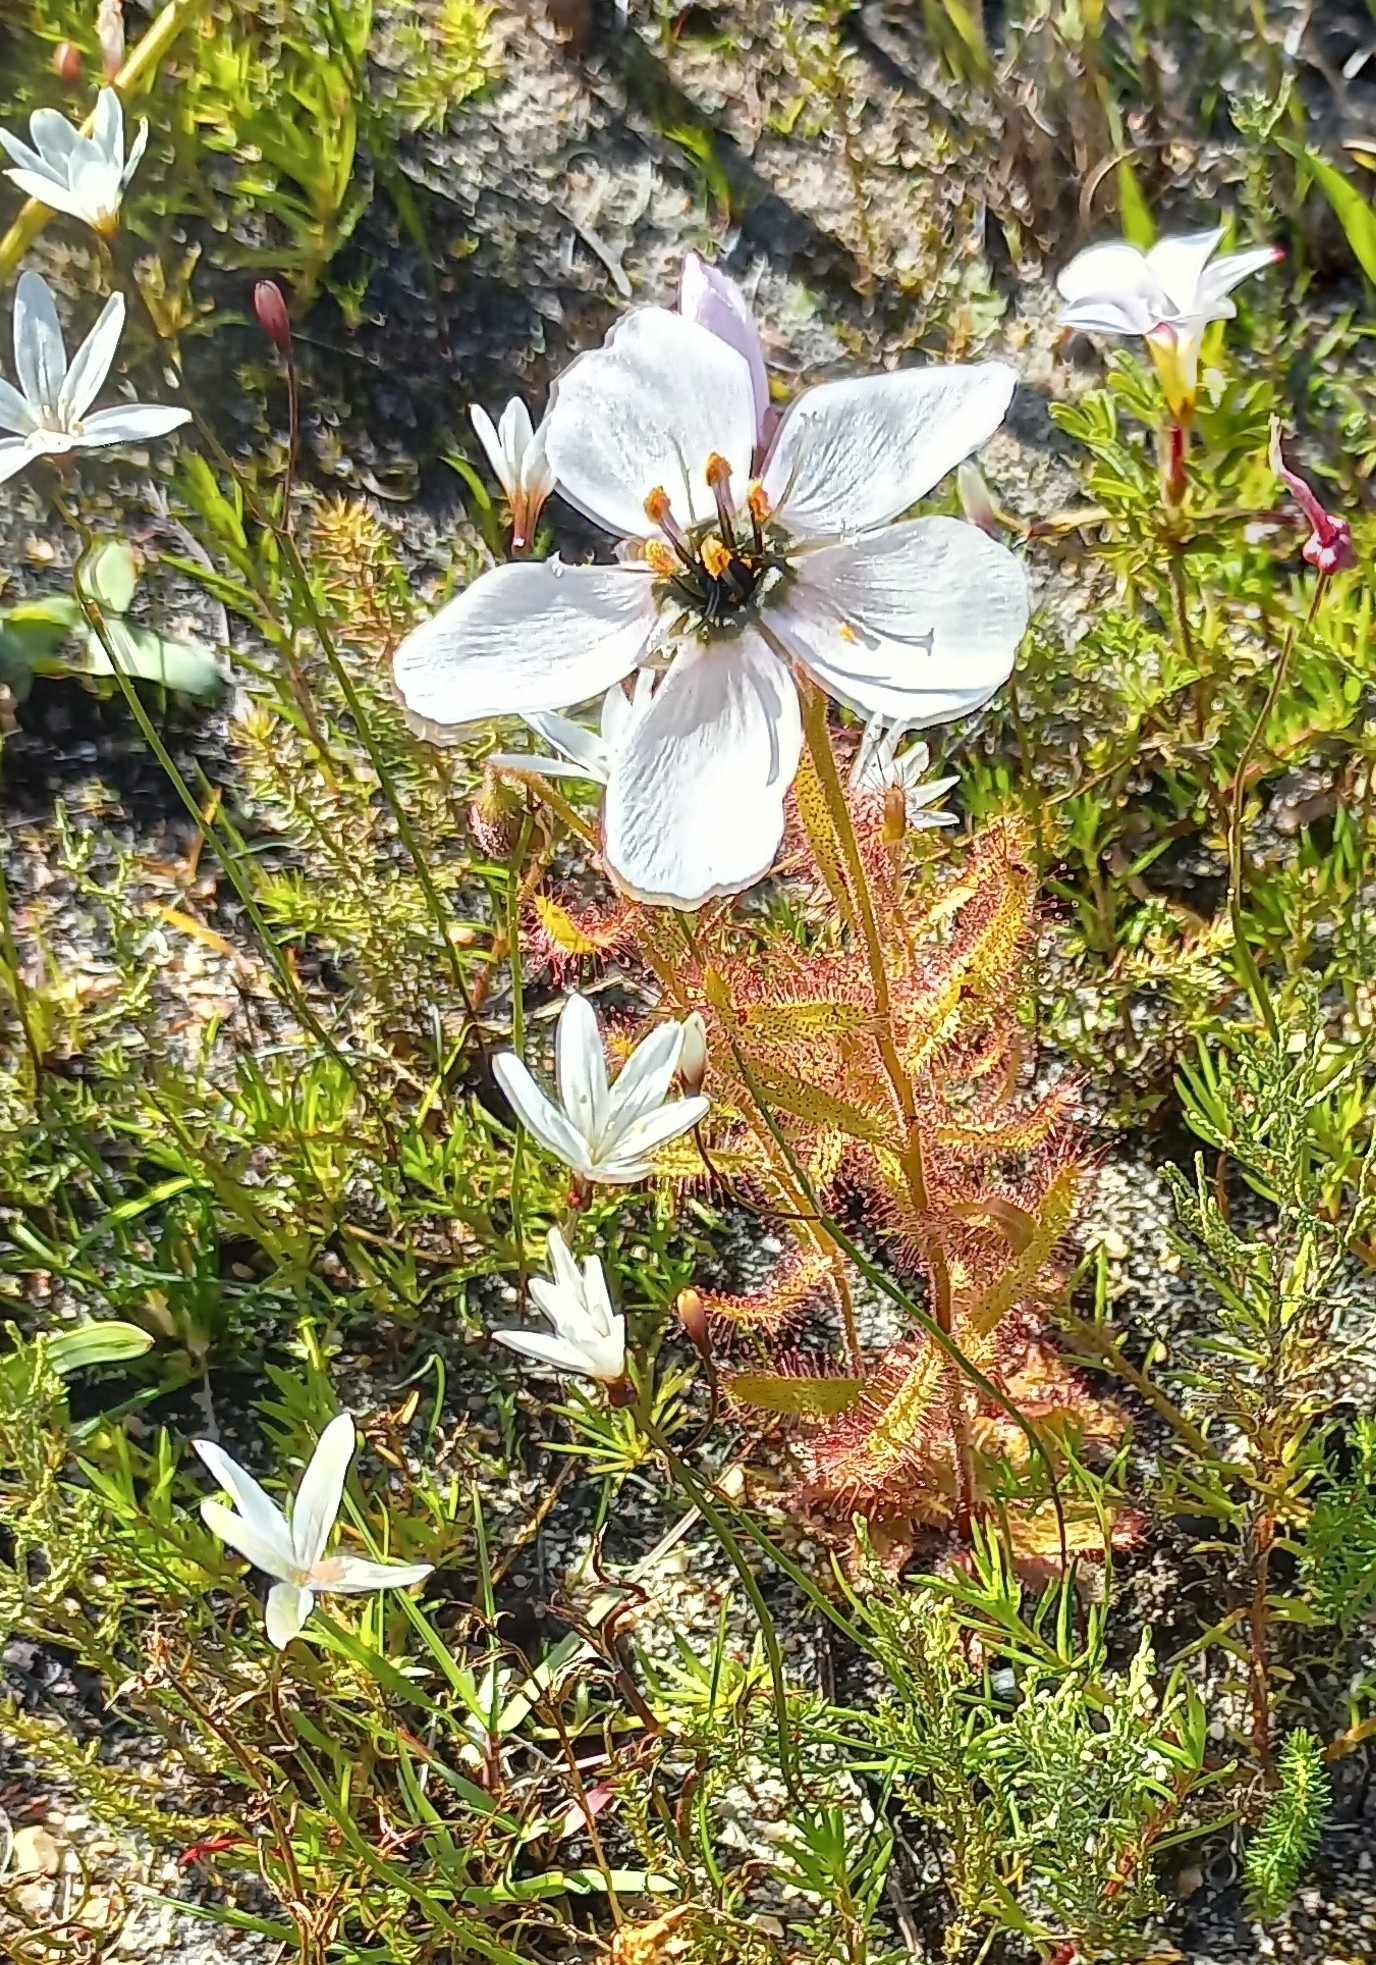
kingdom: Plantae
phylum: Tracheophyta
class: Magnoliopsida
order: Caryophyllales
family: Droseraceae
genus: Drosera
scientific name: Drosera cistiflora
